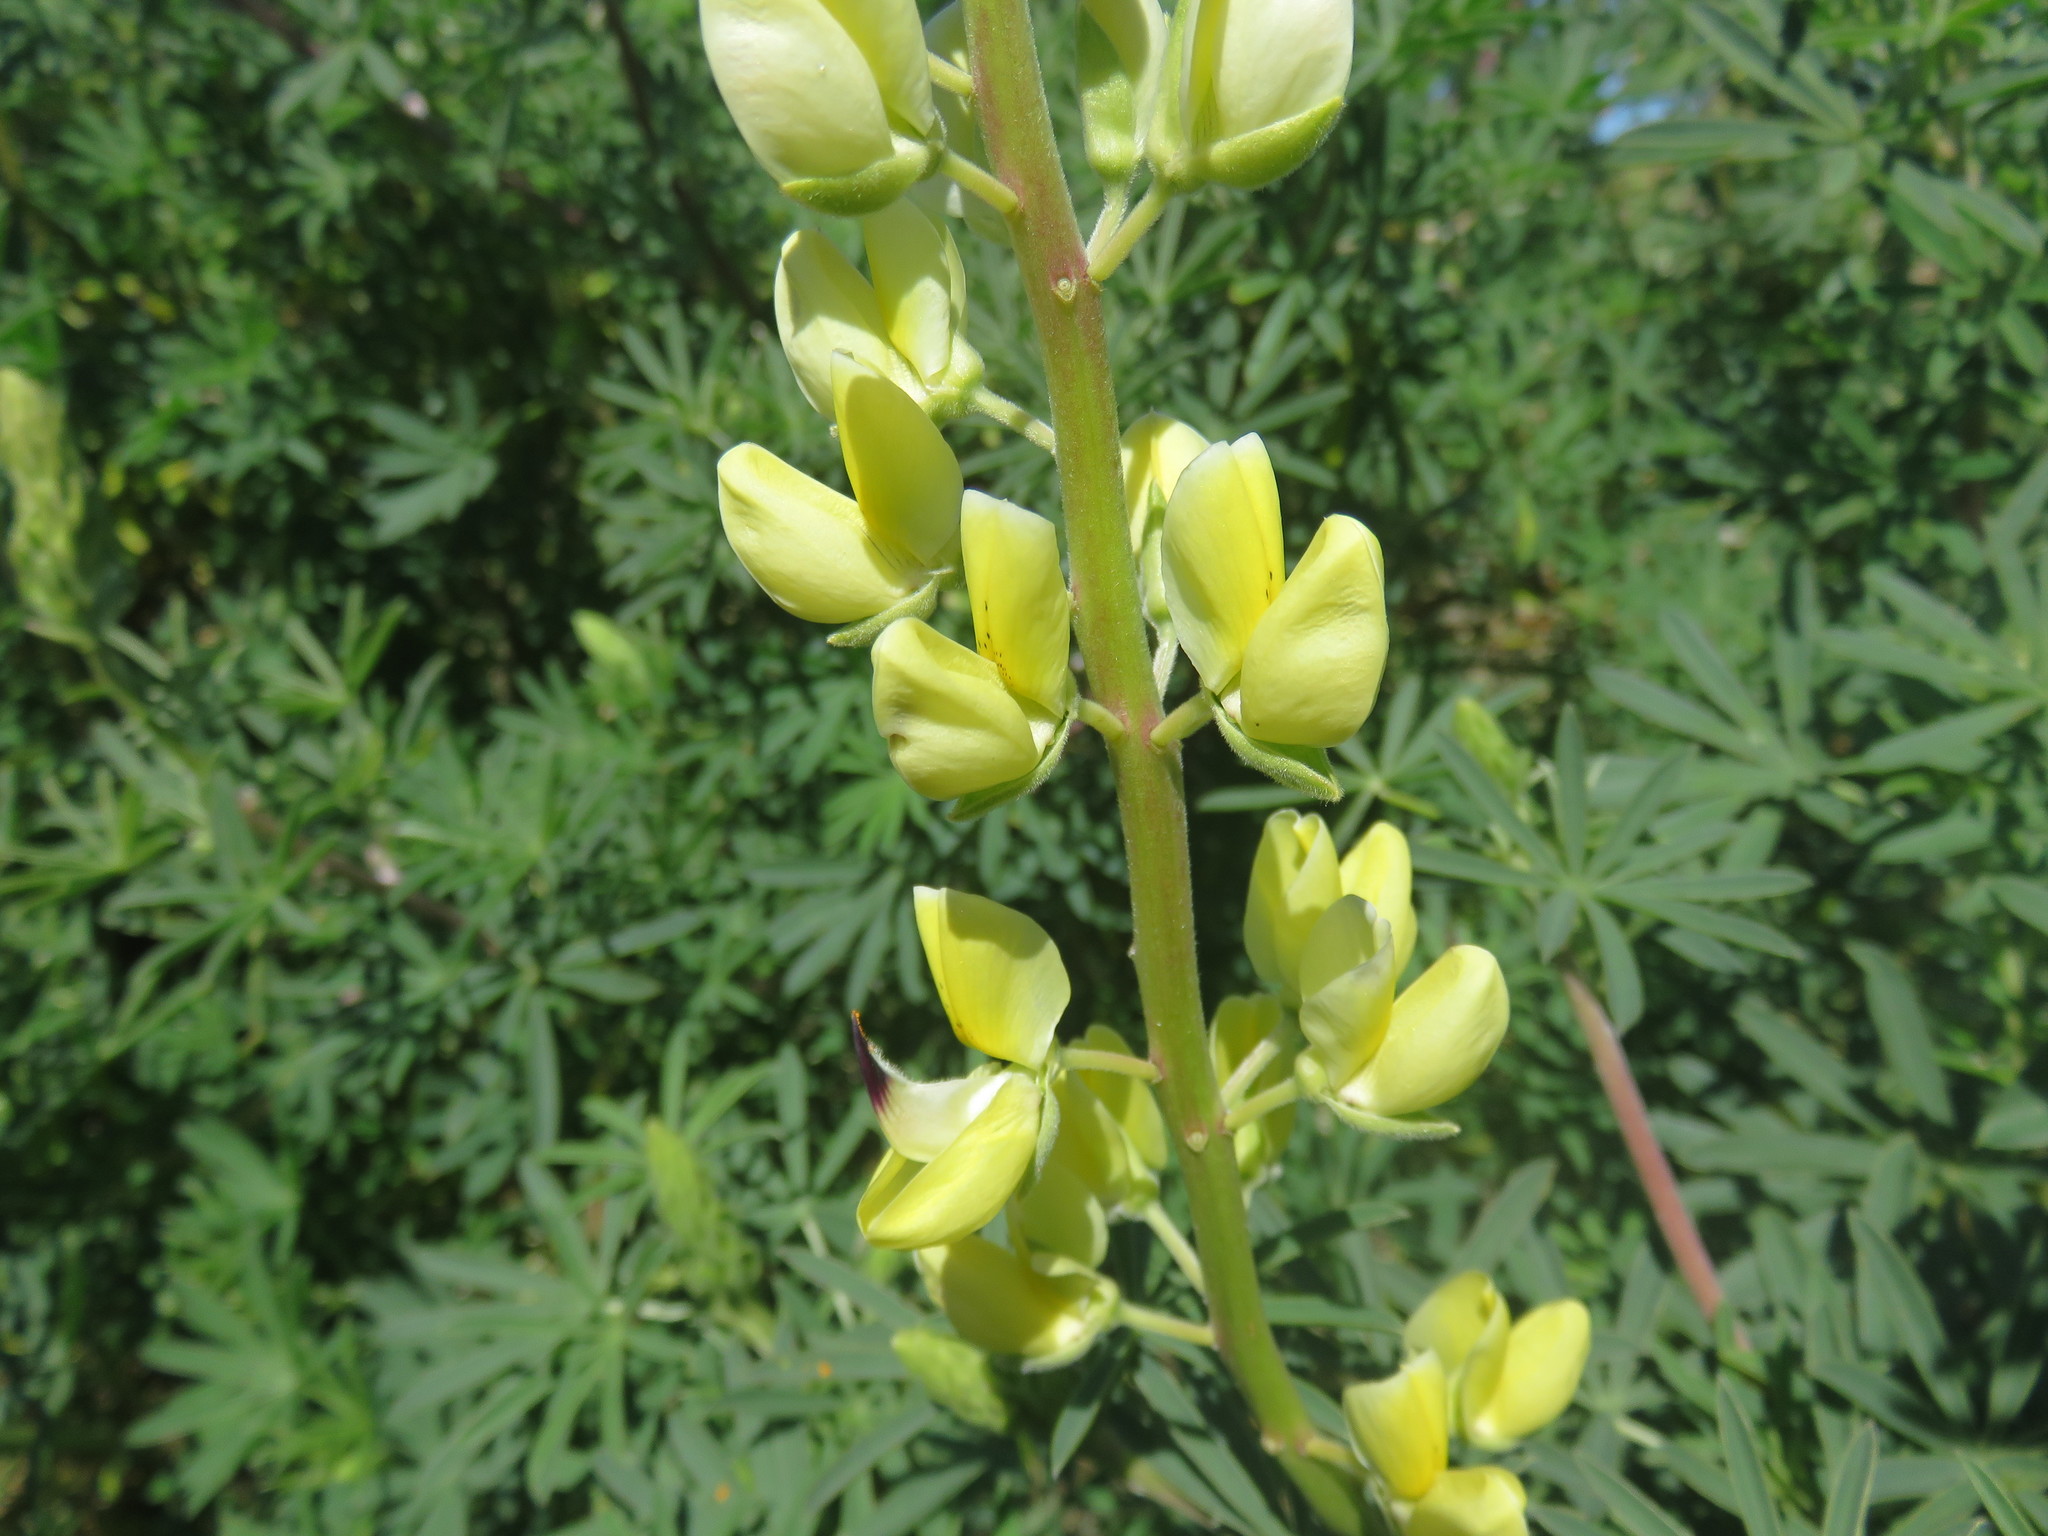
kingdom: Plantae
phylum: Tracheophyta
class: Magnoliopsida
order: Fabales
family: Fabaceae
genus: Lupinus
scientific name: Lupinus arboreus
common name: Yellow bush lupine
